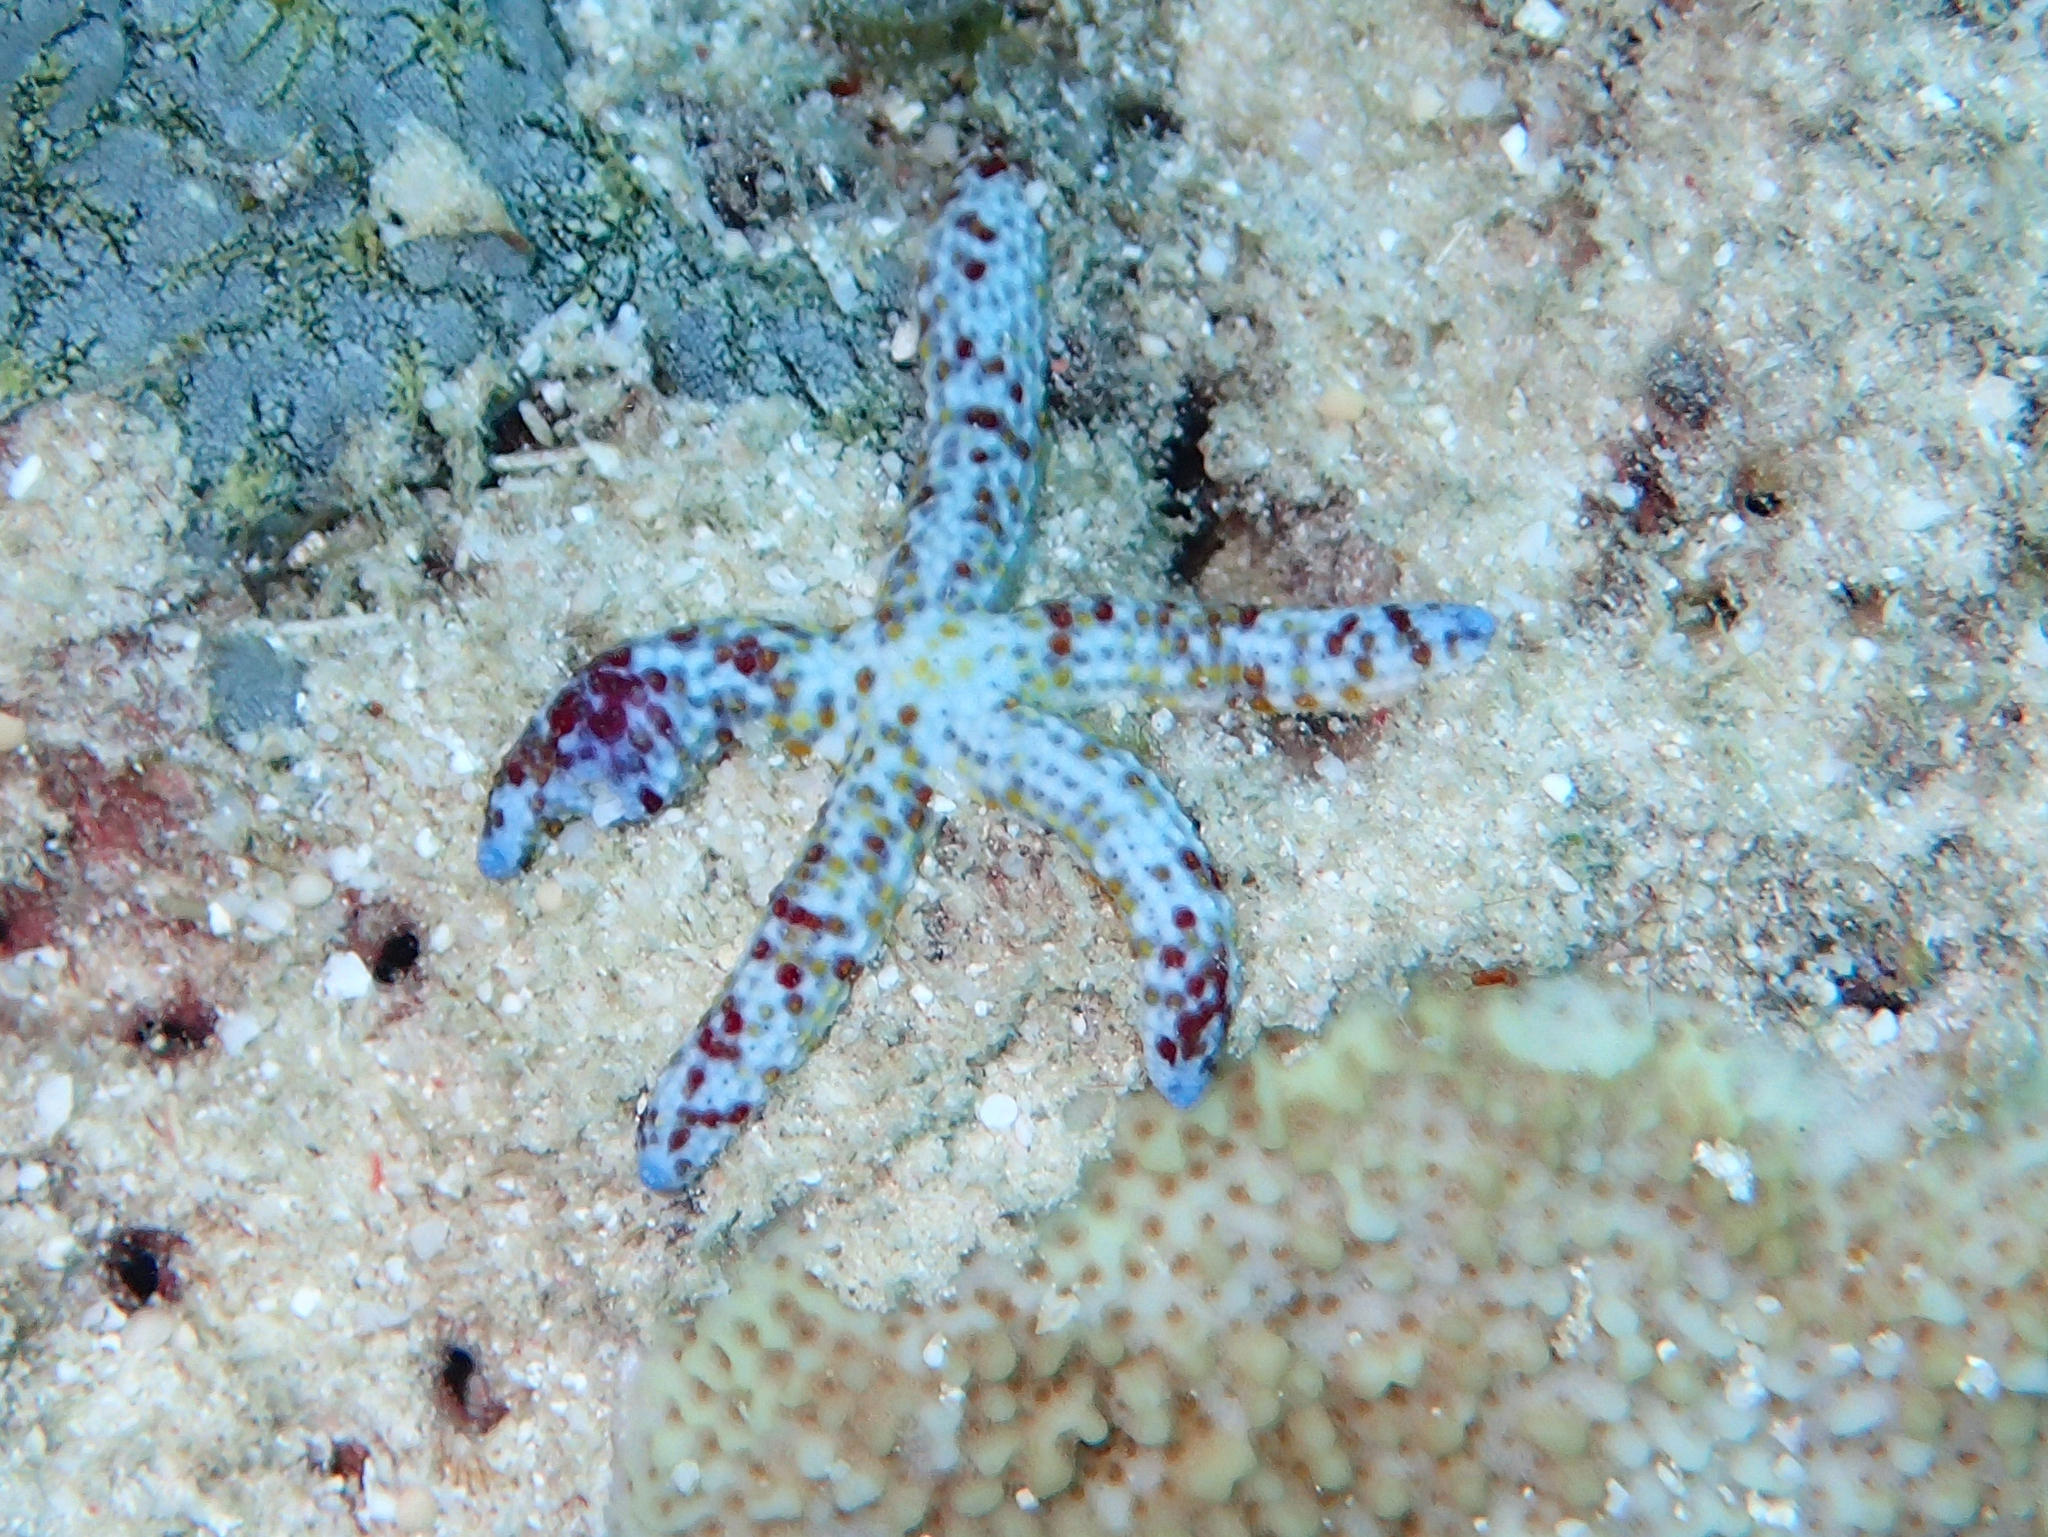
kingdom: Animalia
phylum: Echinodermata
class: Asteroidea
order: Valvatida
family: Ophidiasteridae
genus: Linckia
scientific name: Linckia multifora
